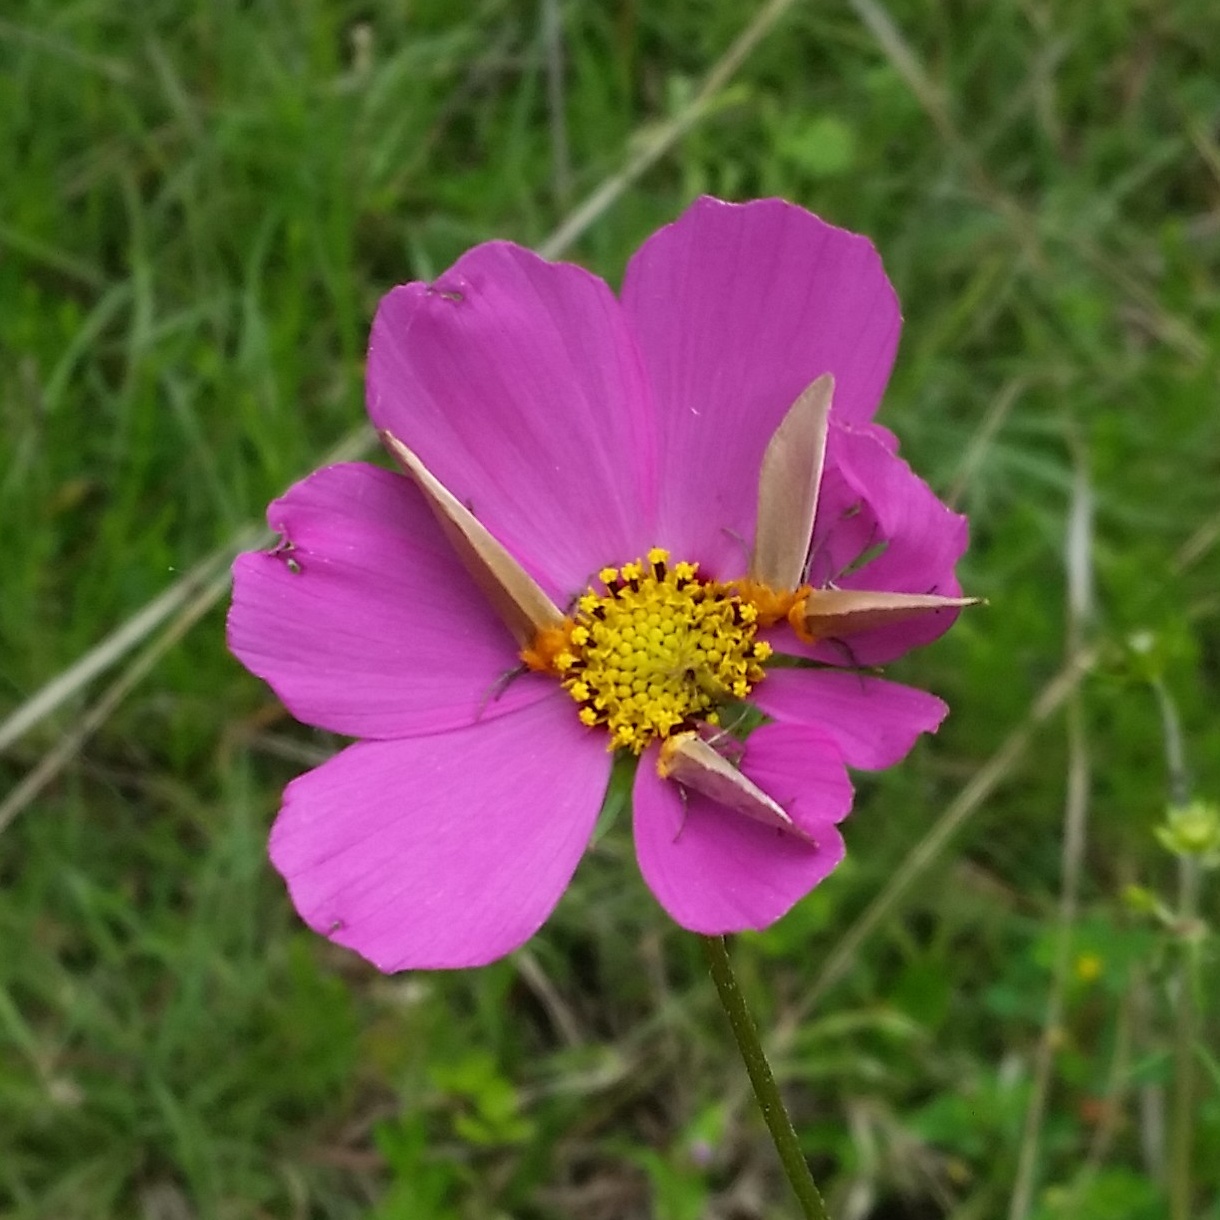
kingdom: Animalia
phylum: Arthropoda
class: Insecta
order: Lepidoptera
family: Noctuidae
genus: Chrysoecia
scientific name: Chrysoecia thoracica
